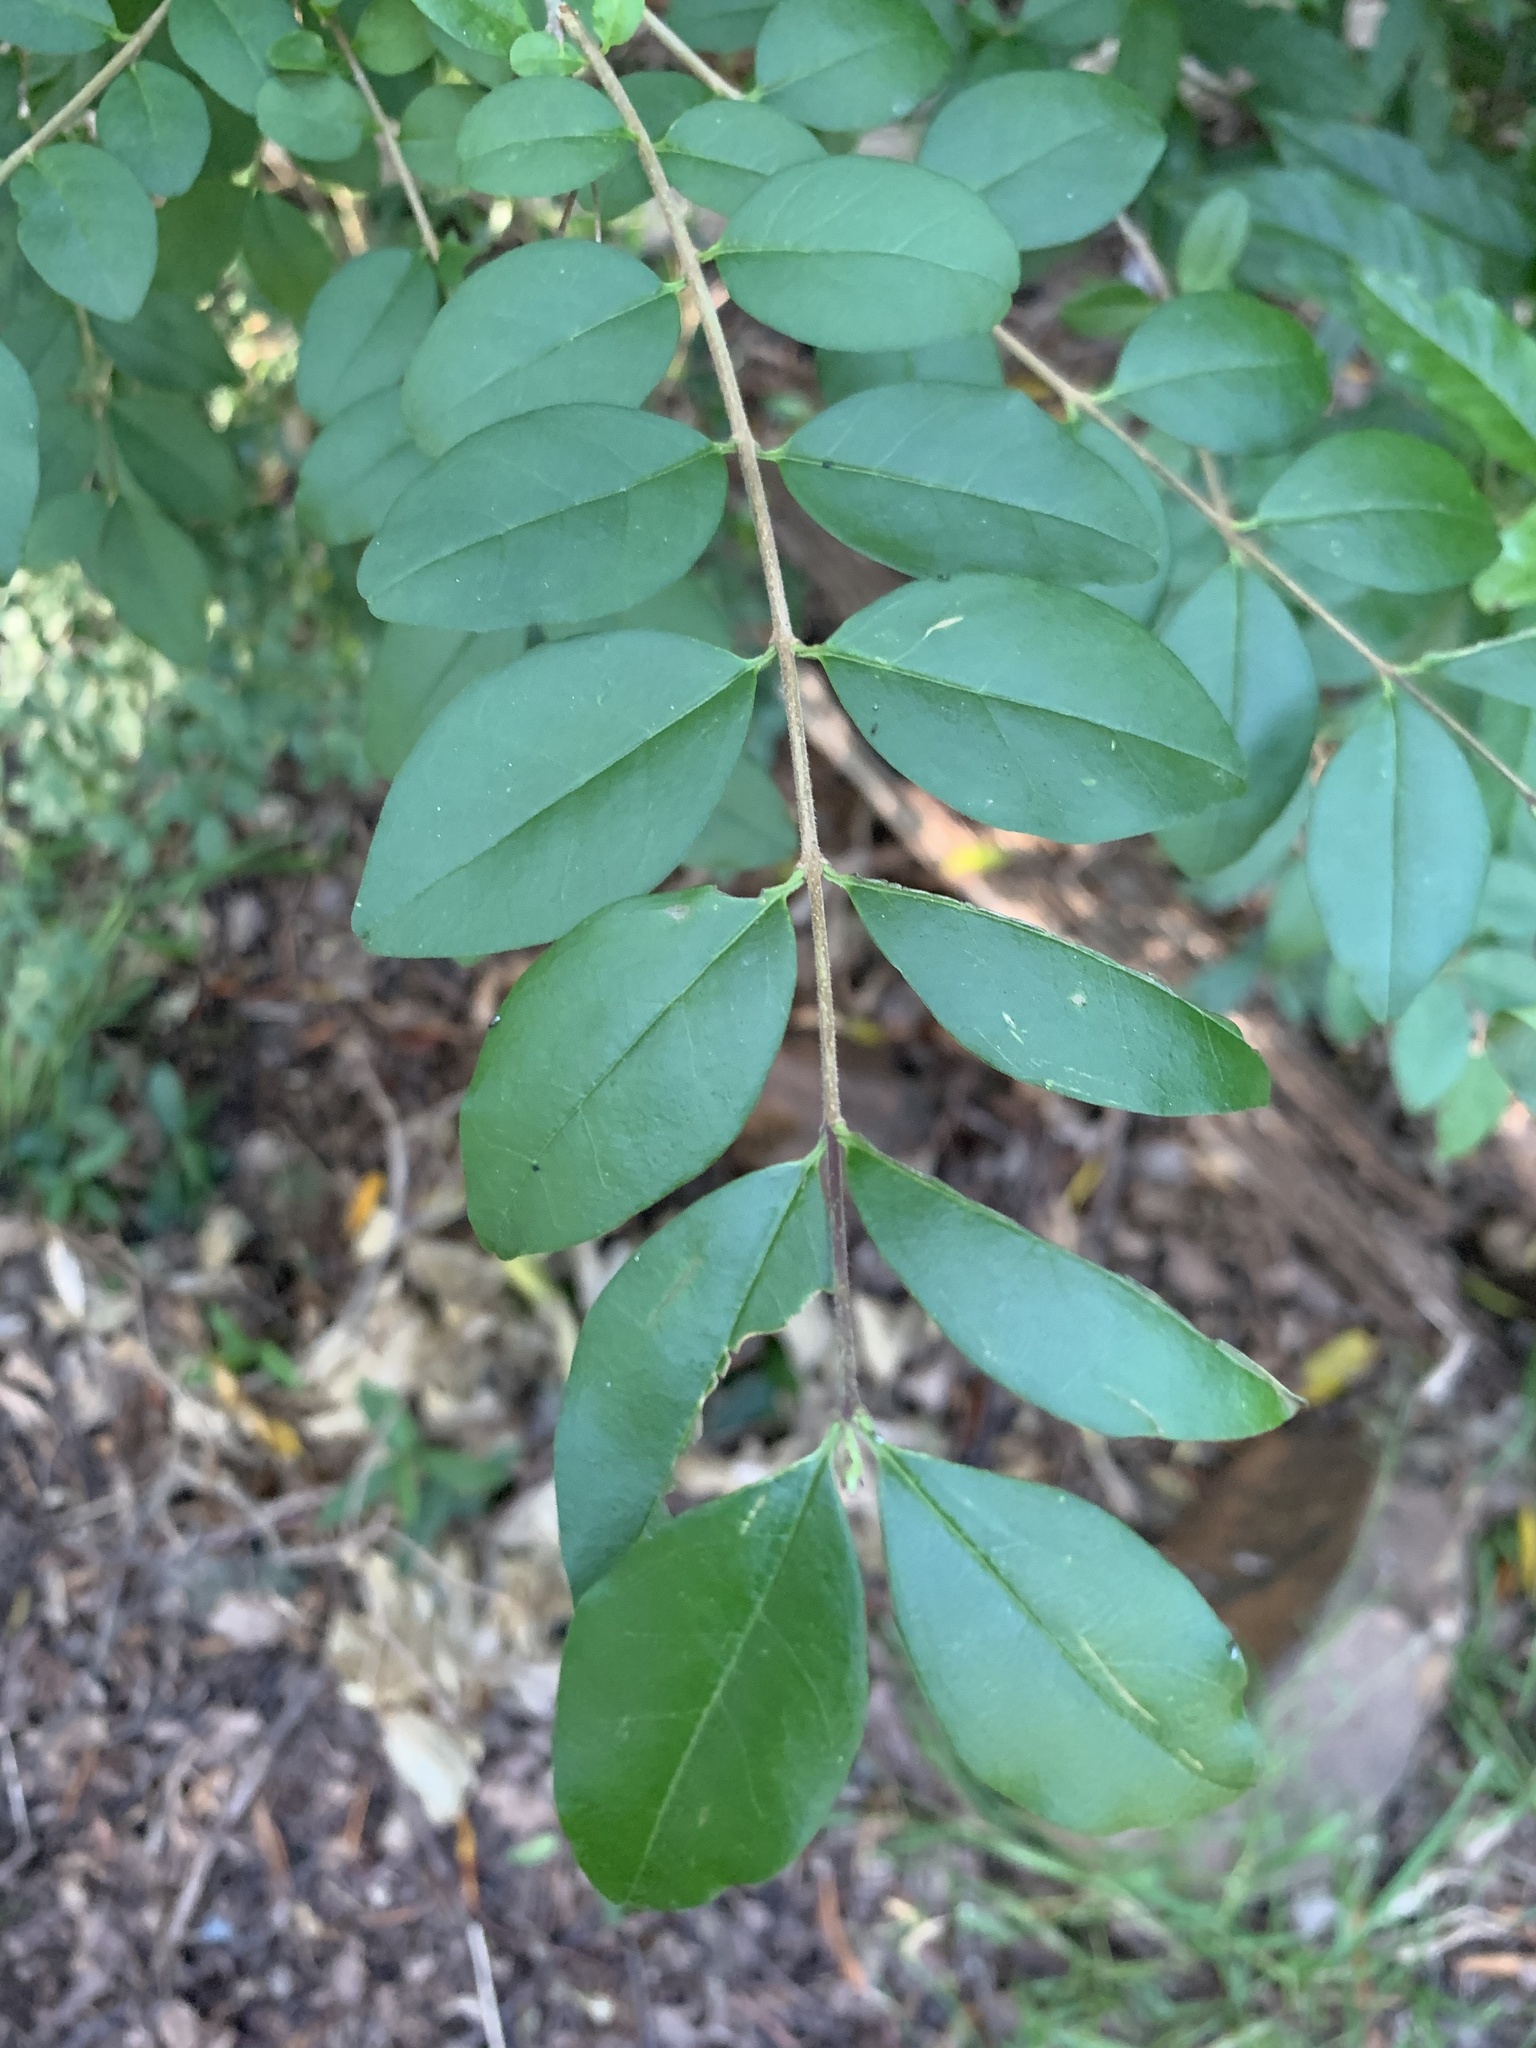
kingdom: Plantae
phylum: Tracheophyta
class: Magnoliopsida
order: Lamiales
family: Oleaceae
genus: Ligustrum
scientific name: Ligustrum sinense
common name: Chinese privet
